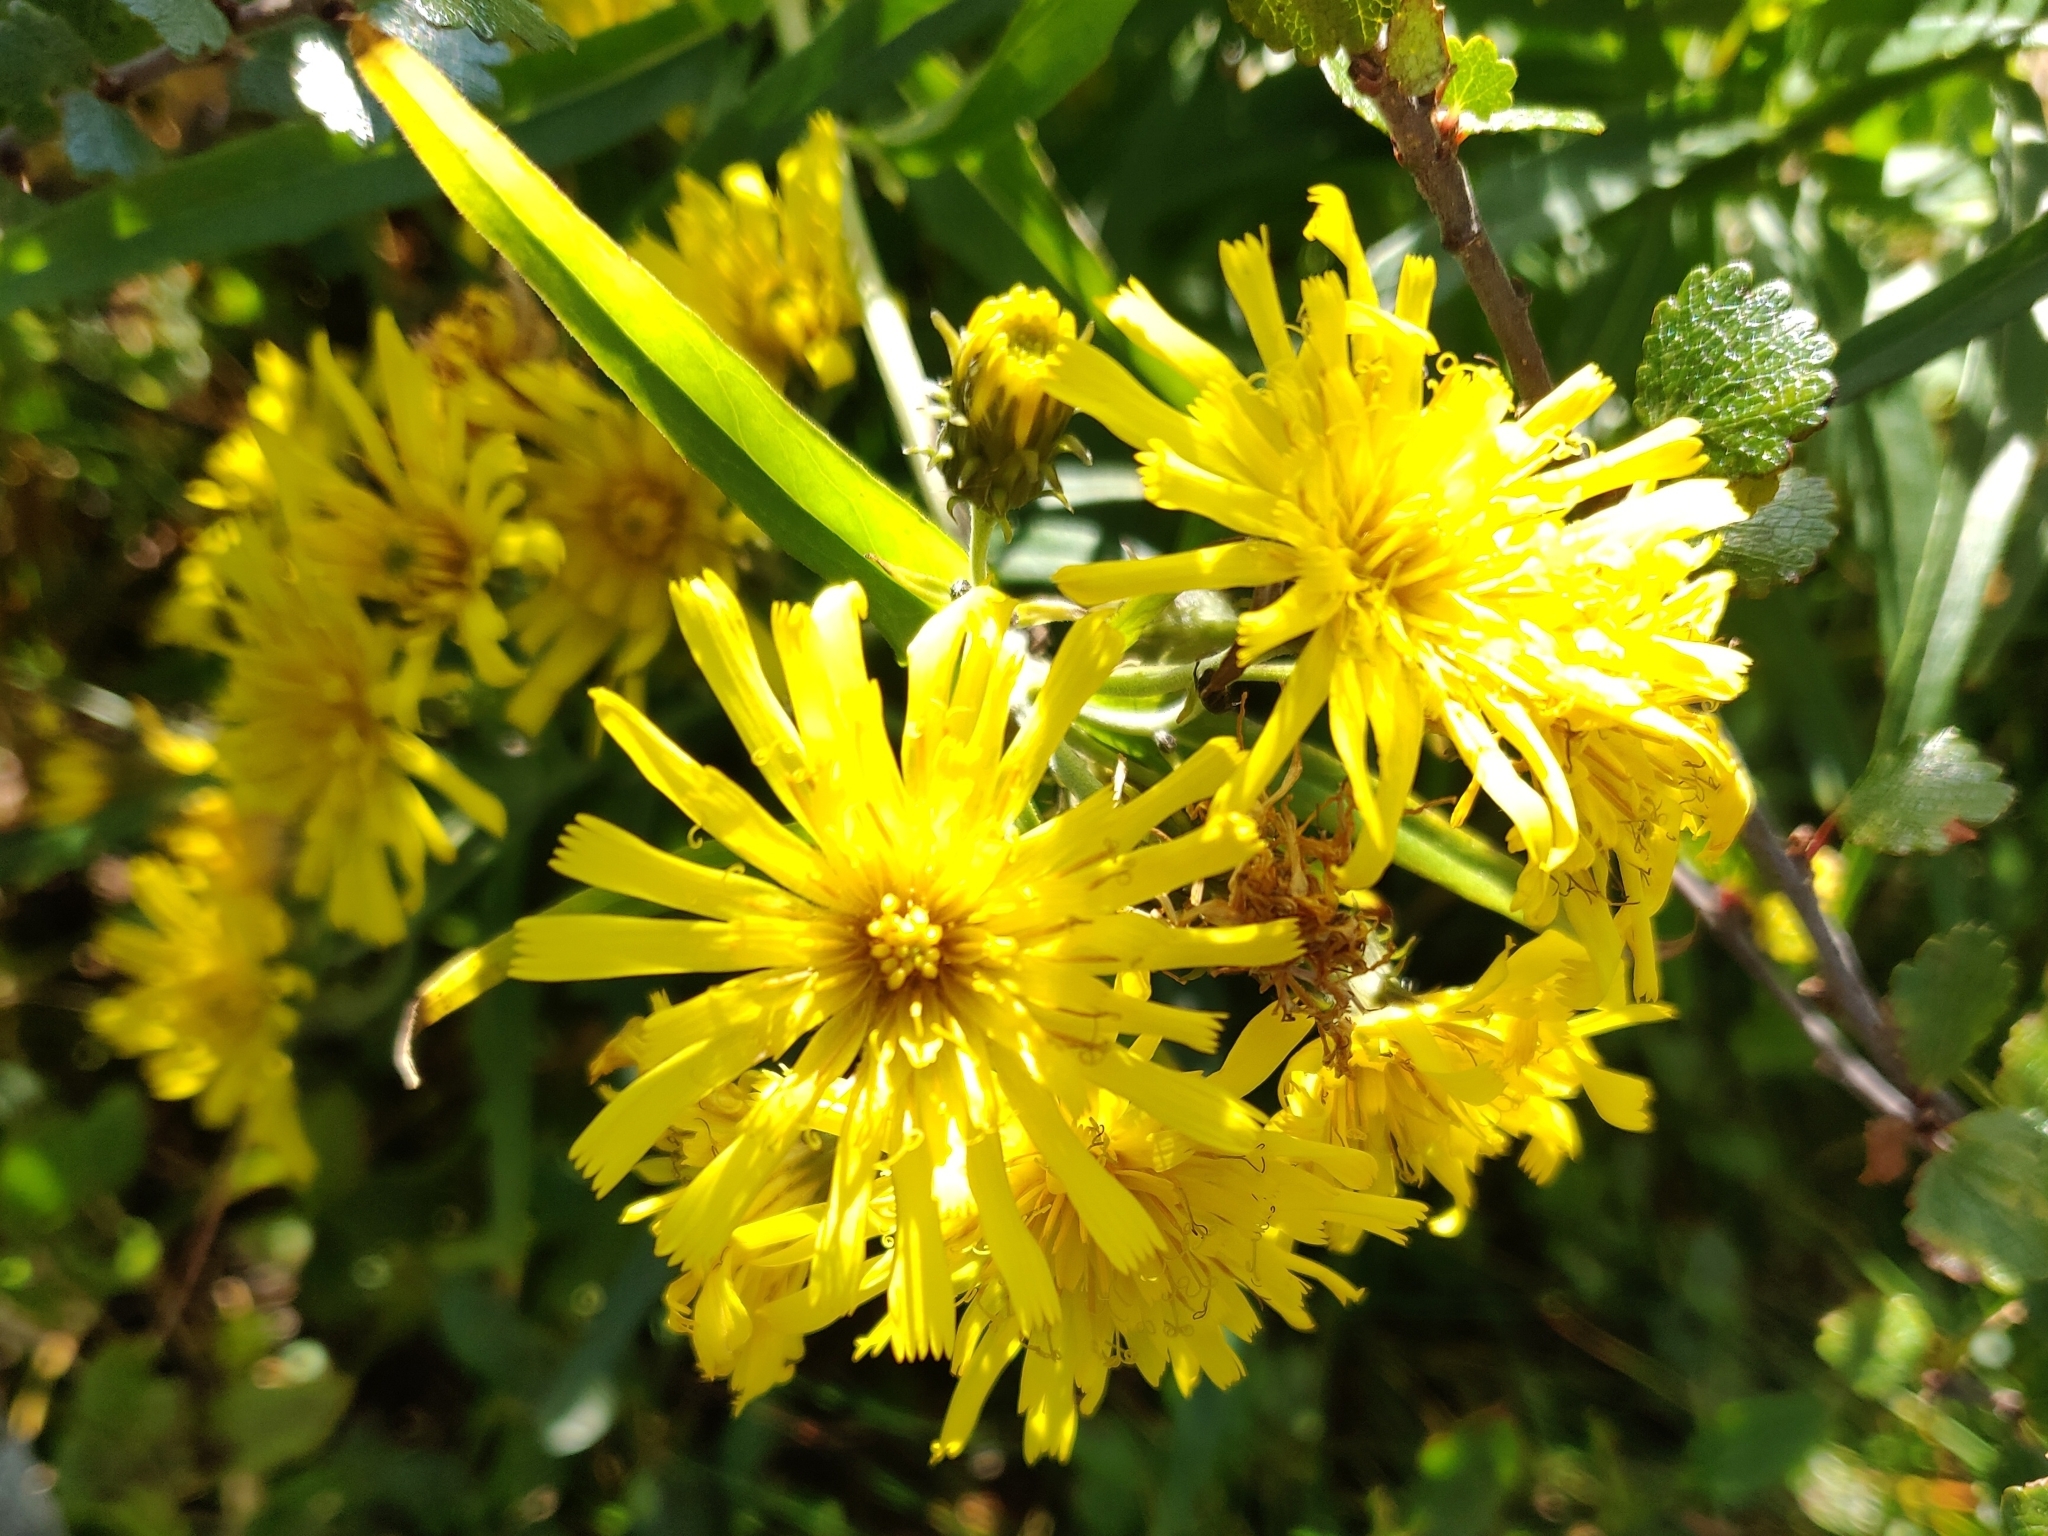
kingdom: Plantae
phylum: Tracheophyta
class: Magnoliopsida
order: Asterales
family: Asteraceae
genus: Hieracium
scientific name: Hieracium umbellatum
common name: Northern hawkweed
